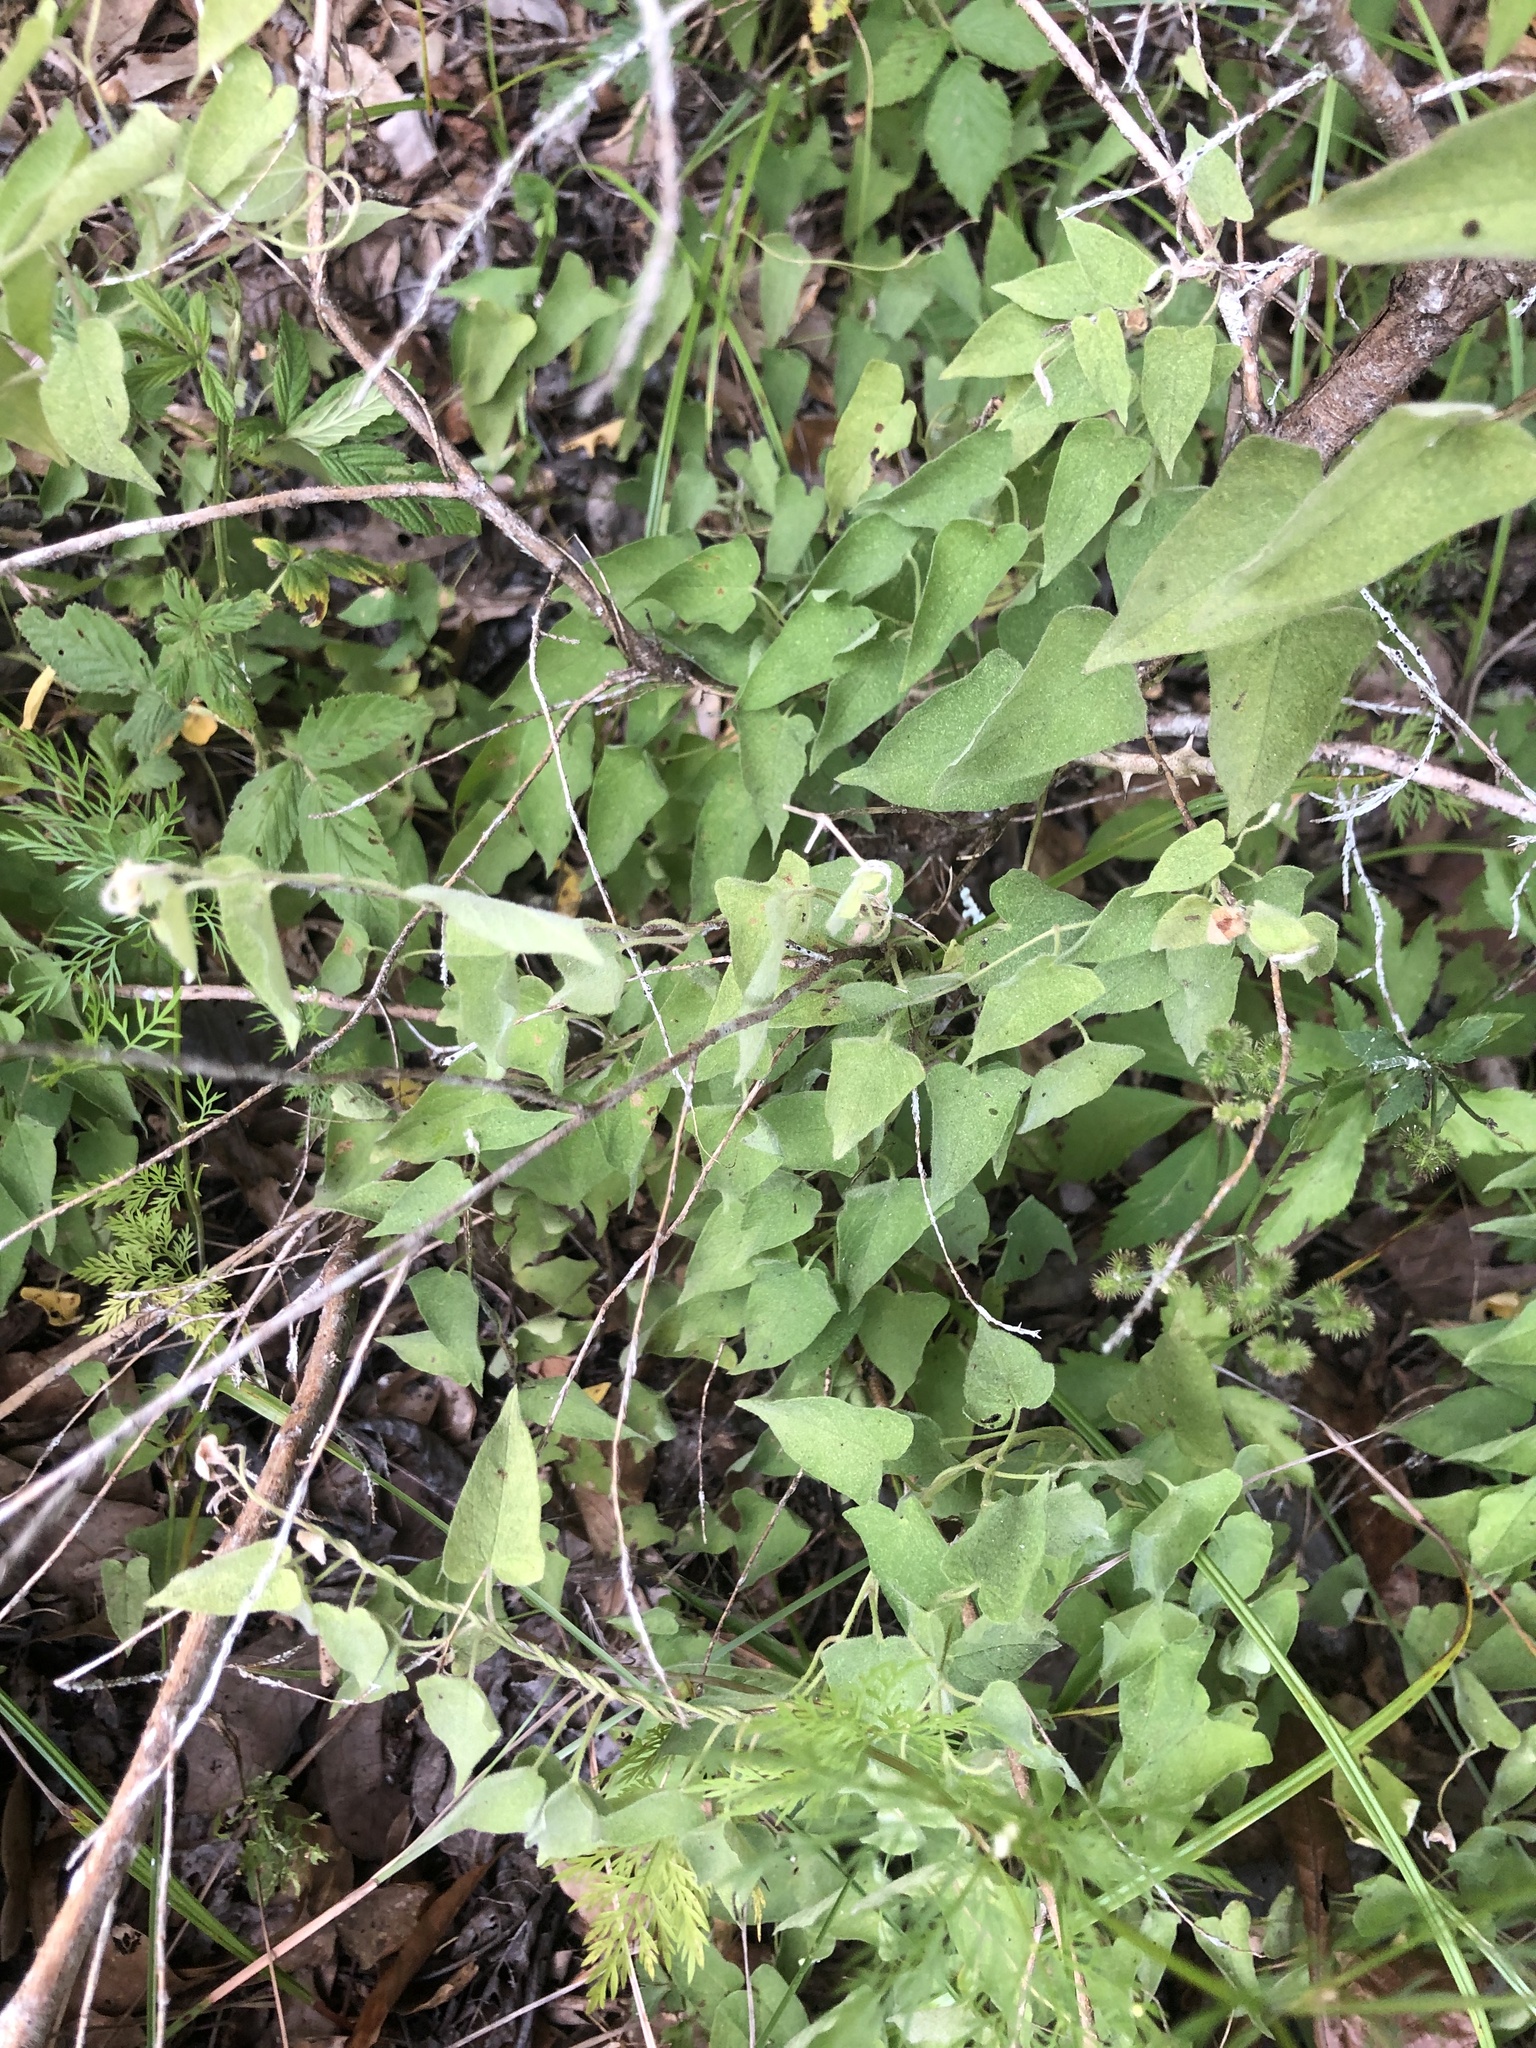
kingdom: Plantae
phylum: Tracheophyta
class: Magnoliopsida
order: Solanales
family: Convolvulaceae
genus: Calystegia
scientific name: Calystegia catesbeiana
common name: Catesby's false bindweed
